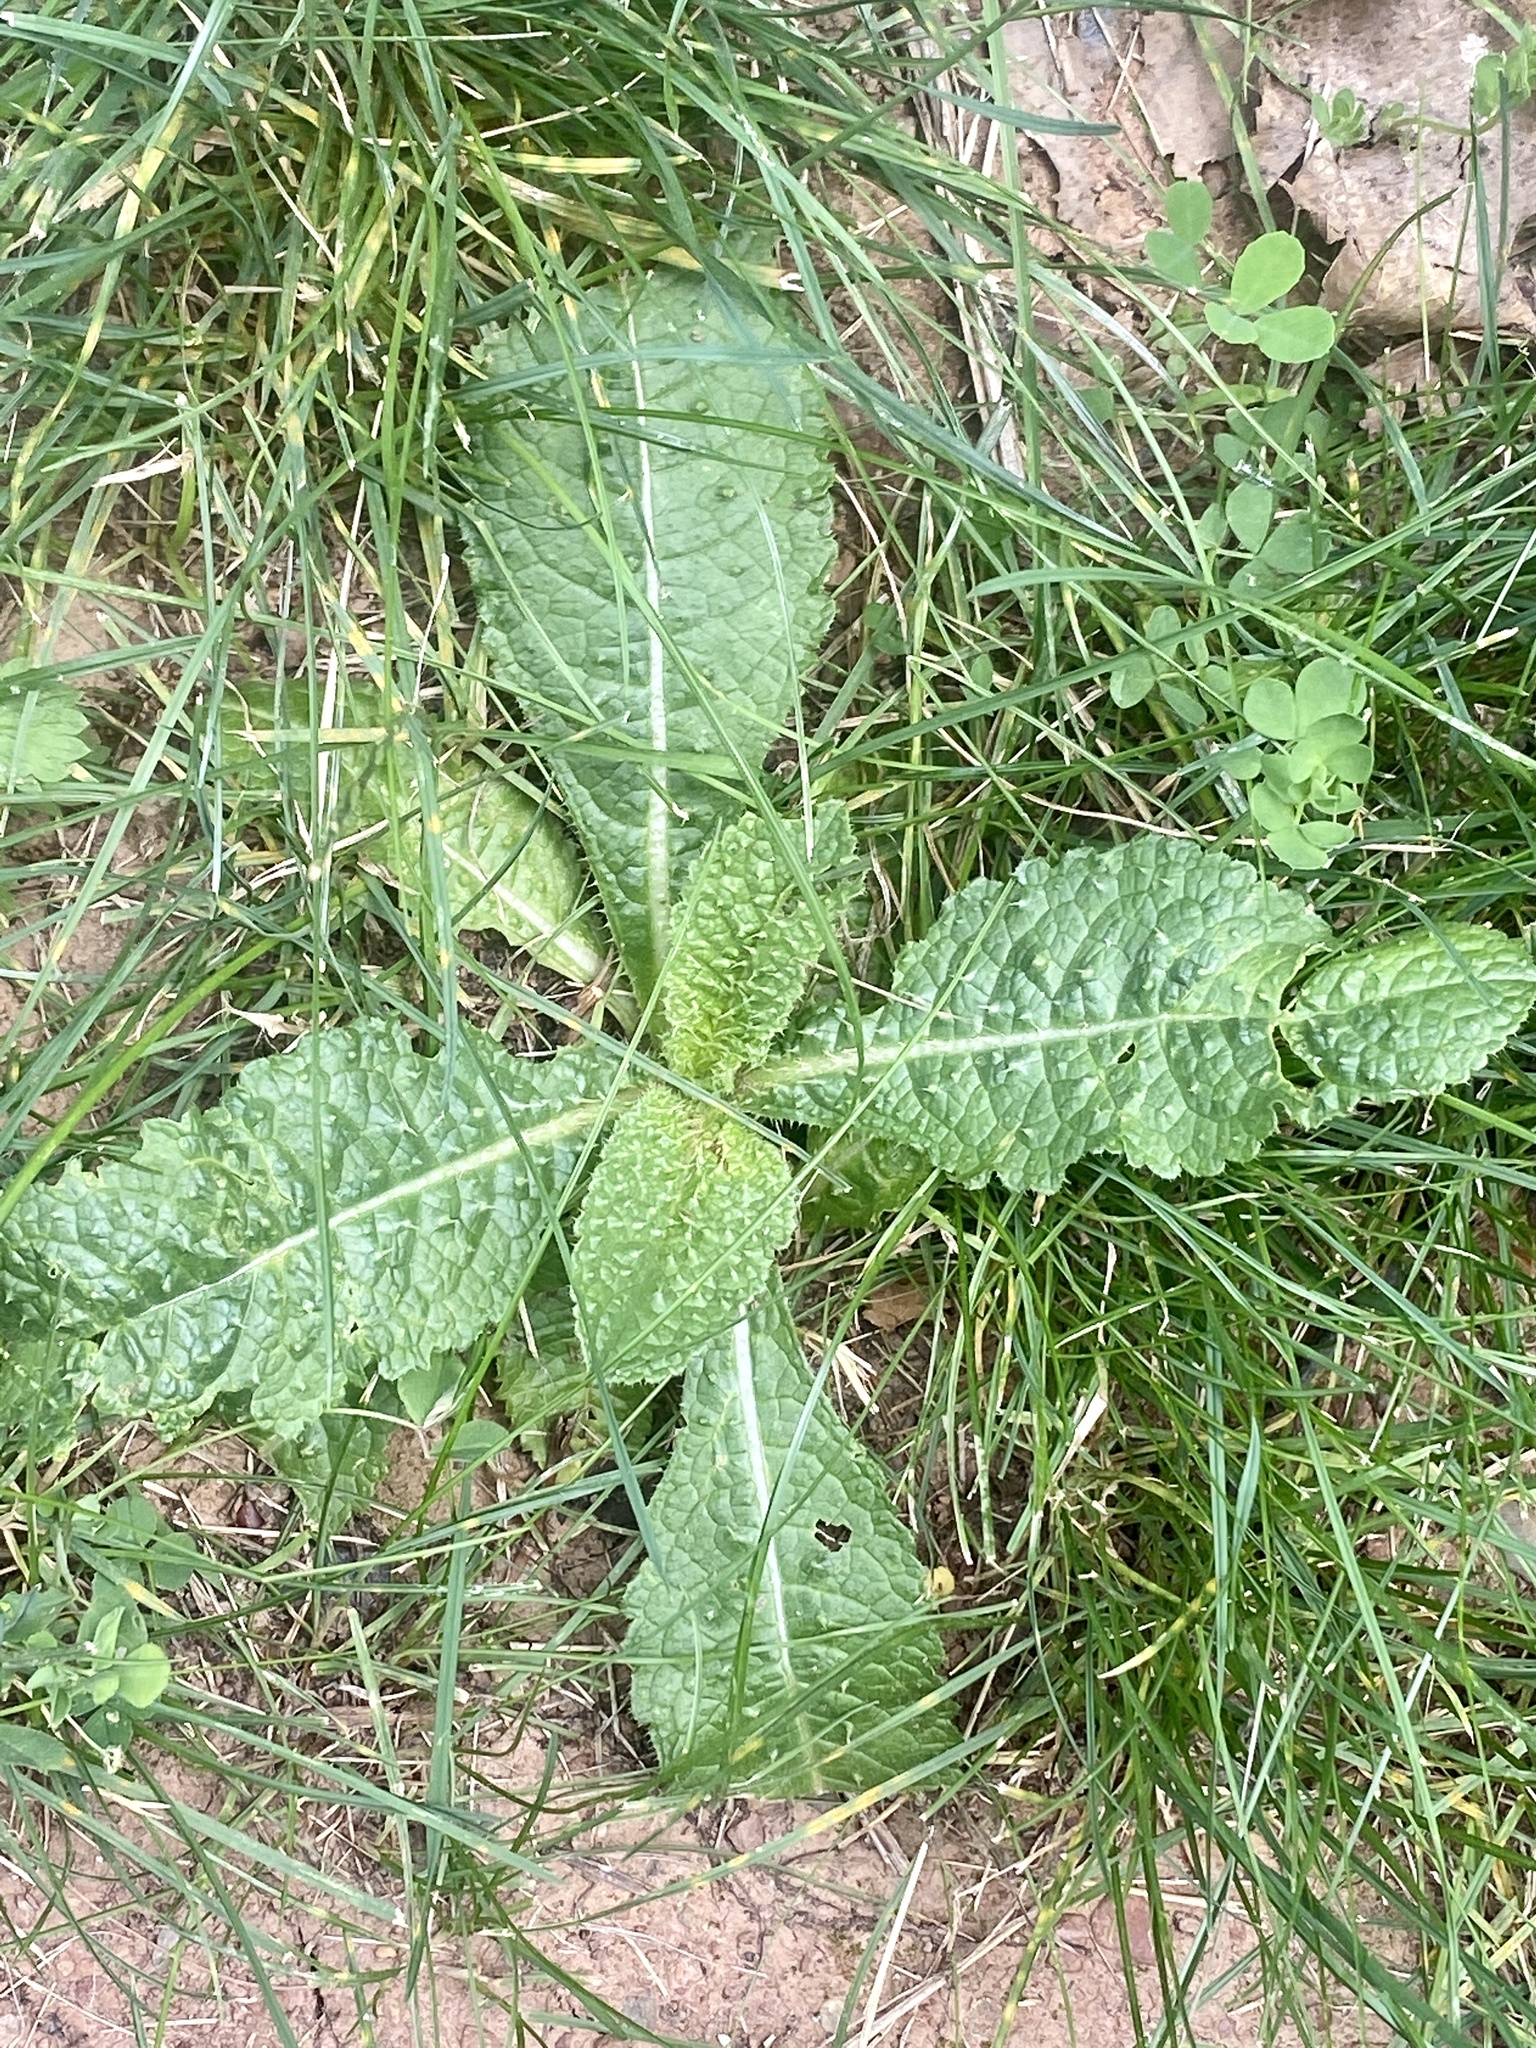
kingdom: Plantae
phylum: Tracheophyta
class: Magnoliopsida
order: Dipsacales
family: Caprifoliaceae
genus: Dipsacus
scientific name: Dipsacus fullonum
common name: Teasel
